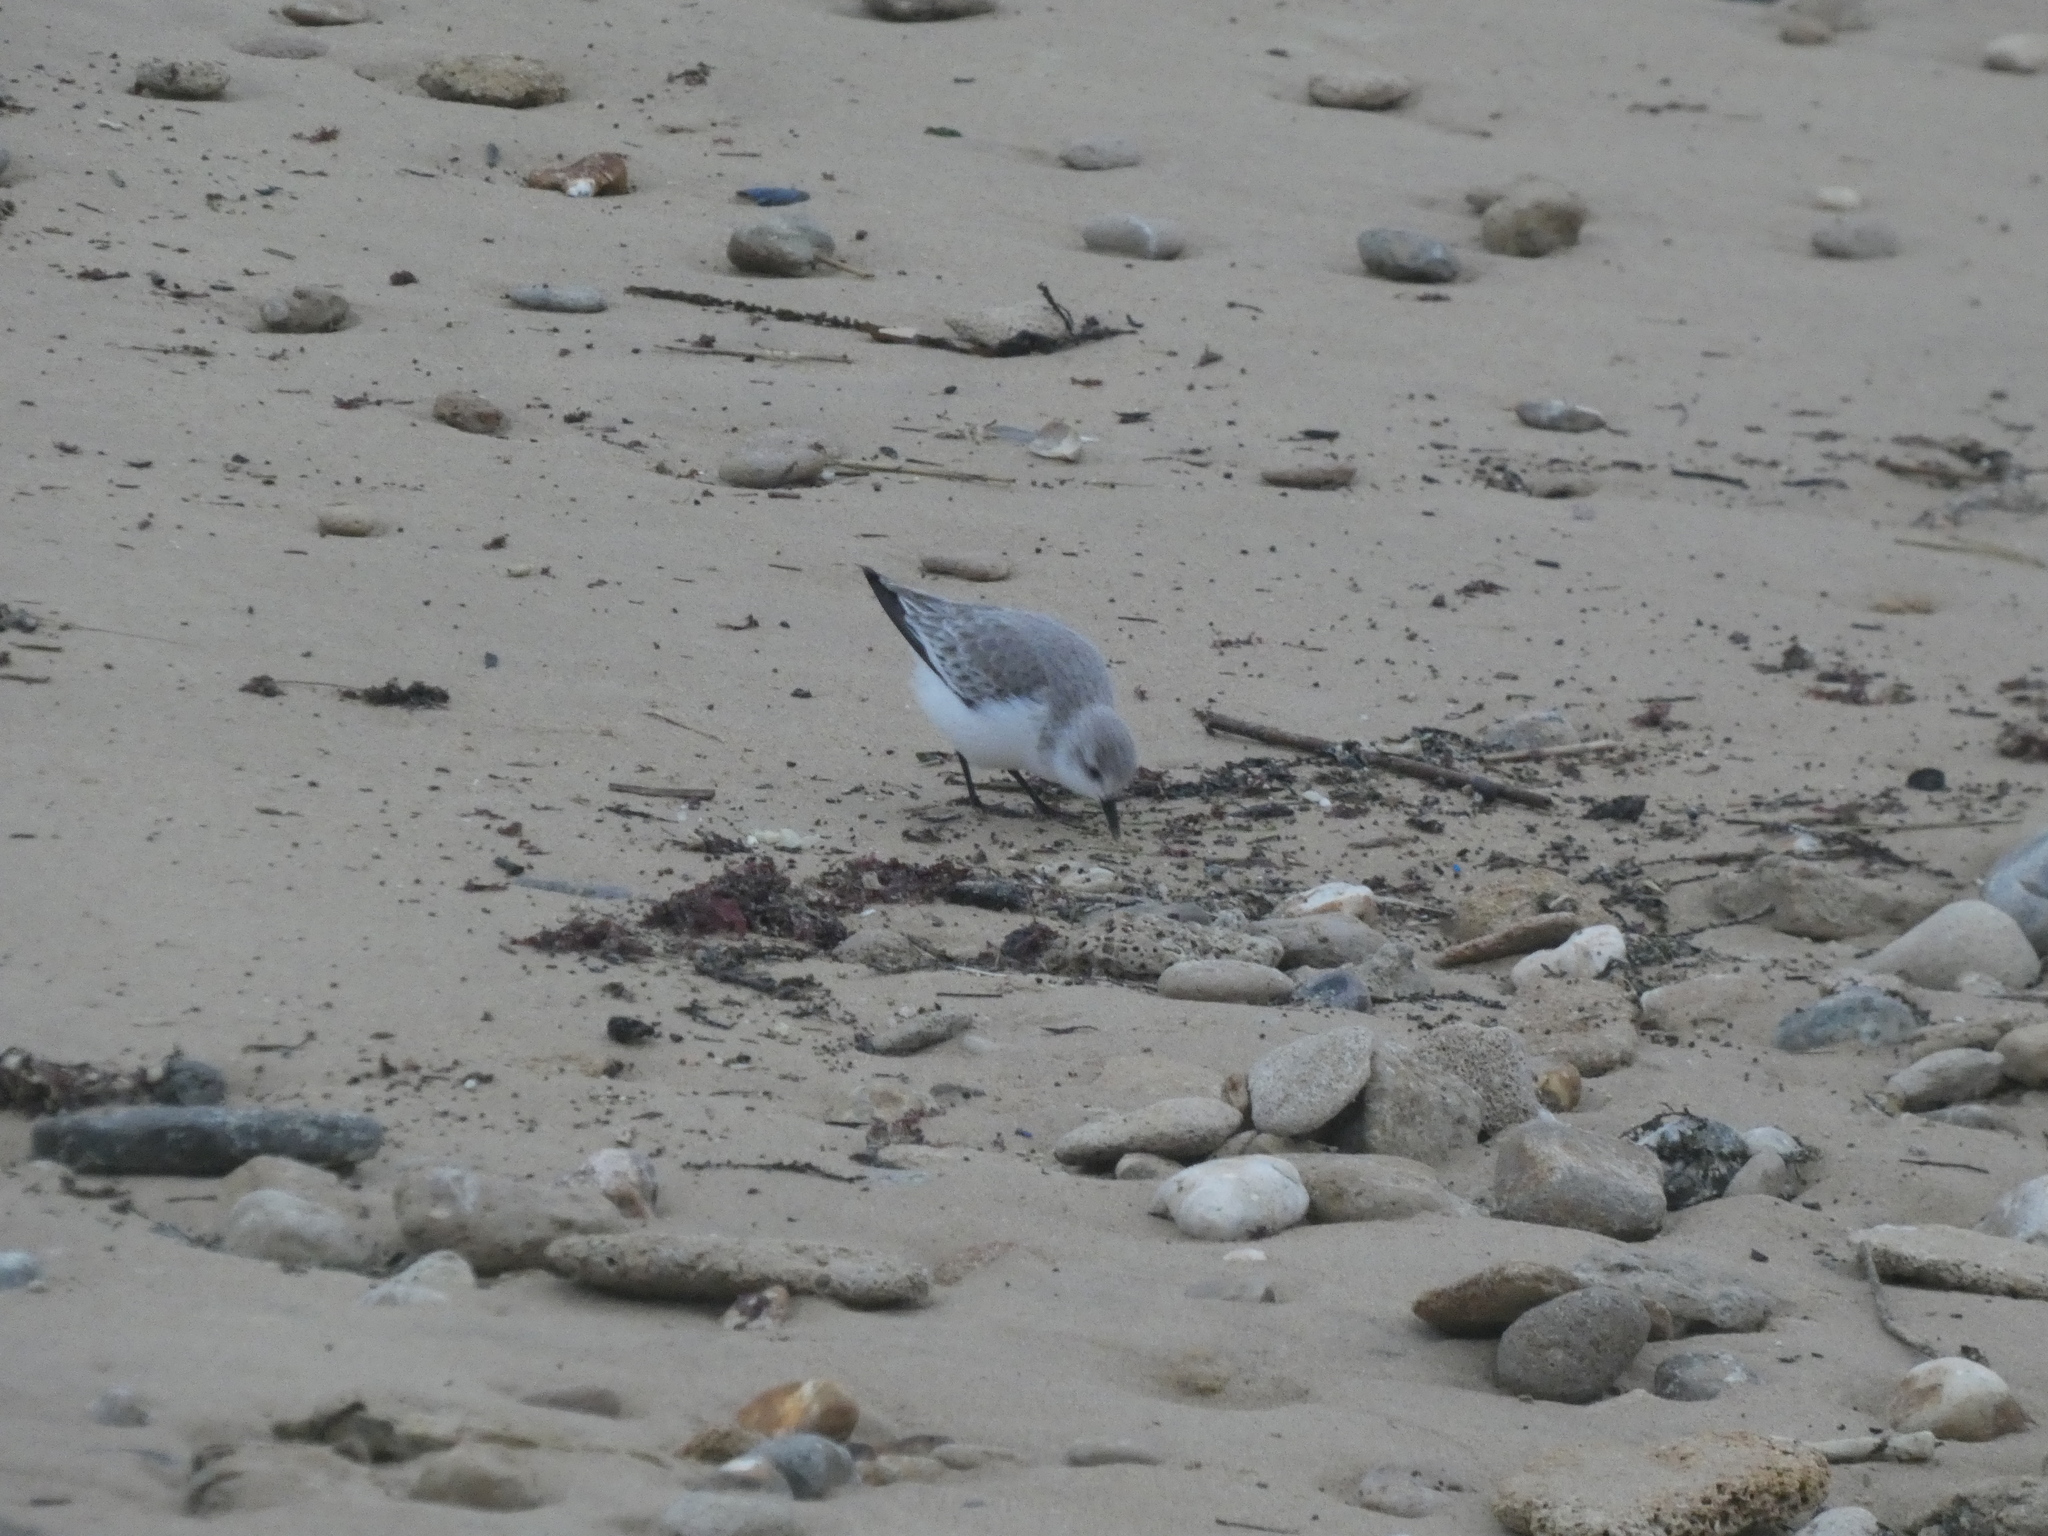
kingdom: Animalia
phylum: Chordata
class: Aves
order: Charadriiformes
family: Scolopacidae
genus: Calidris
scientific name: Calidris alba
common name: Sanderling
